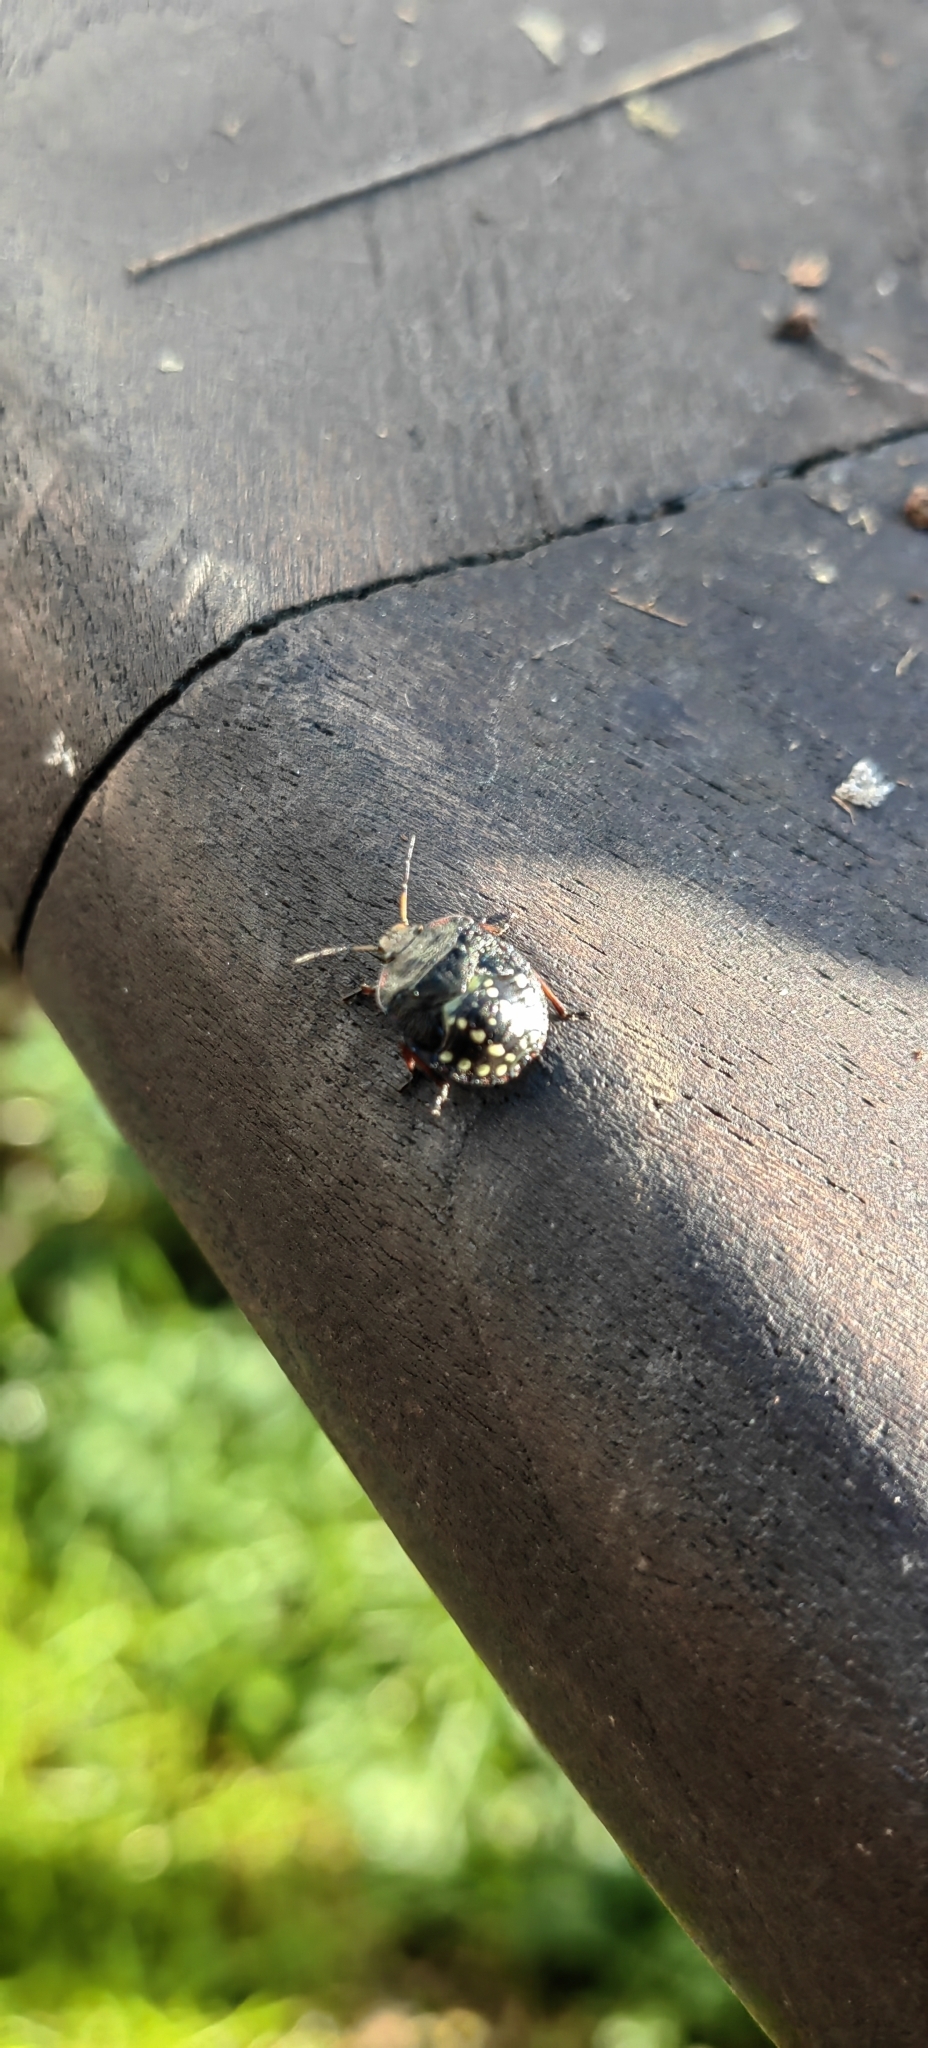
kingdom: Animalia
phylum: Arthropoda
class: Insecta
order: Hemiptera
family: Pentatomidae
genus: Nezara
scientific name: Nezara viridula
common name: Southern green stink bug
